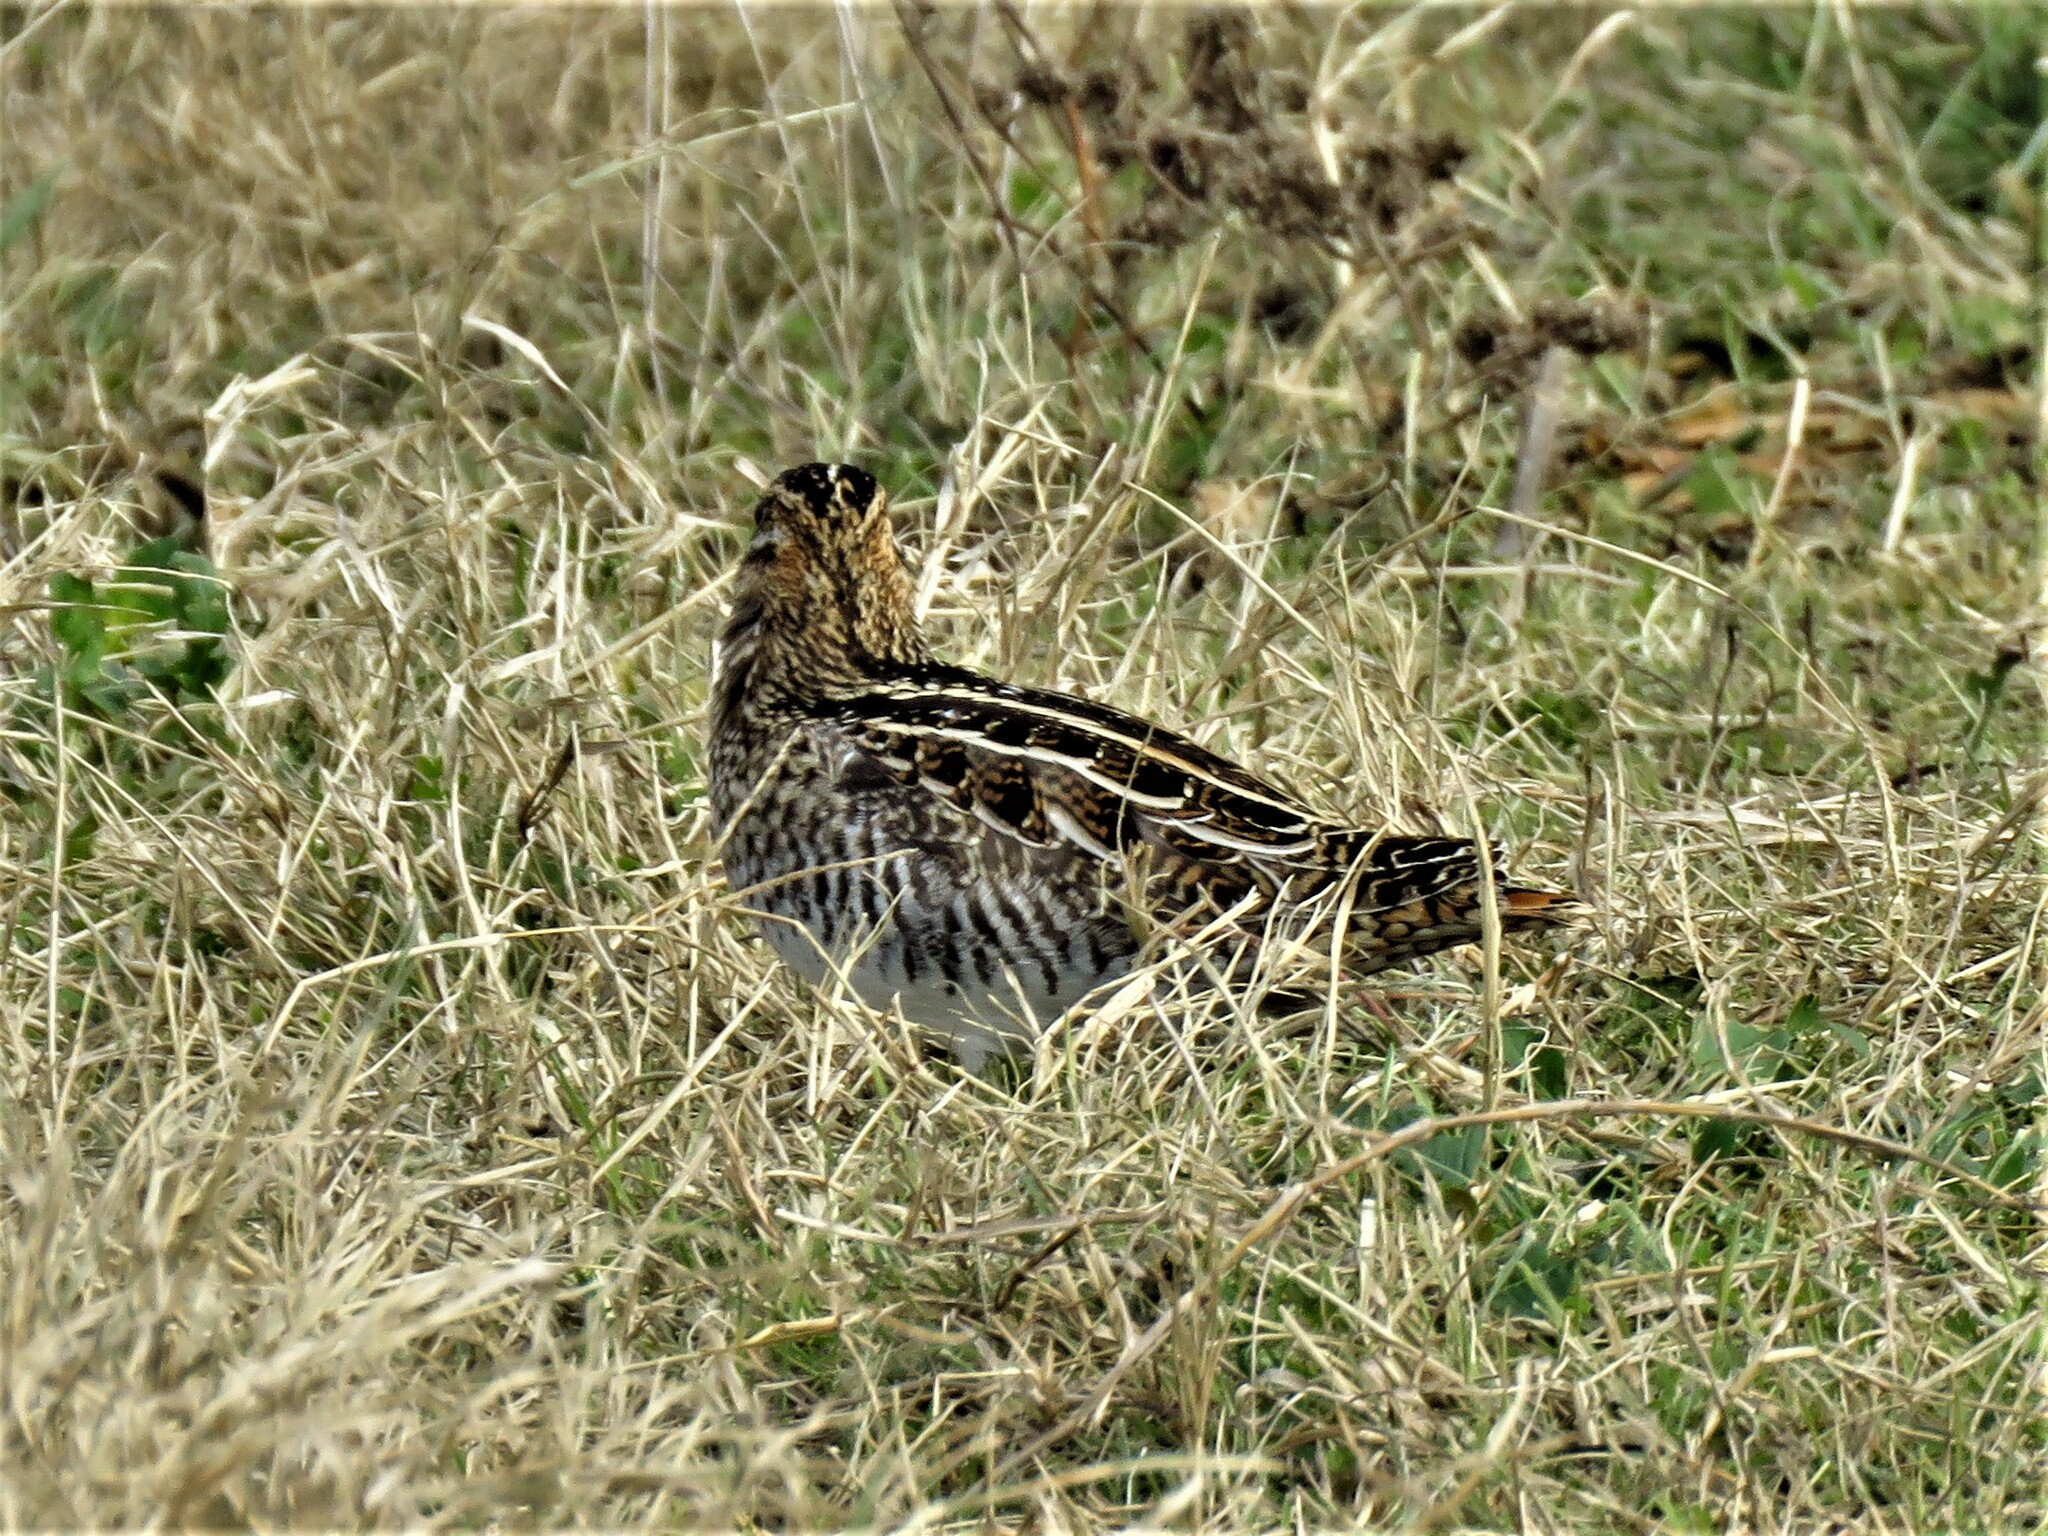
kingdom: Animalia
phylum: Chordata
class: Aves
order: Charadriiformes
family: Scolopacidae
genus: Gallinago
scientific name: Gallinago delicata
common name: Wilson's snipe
